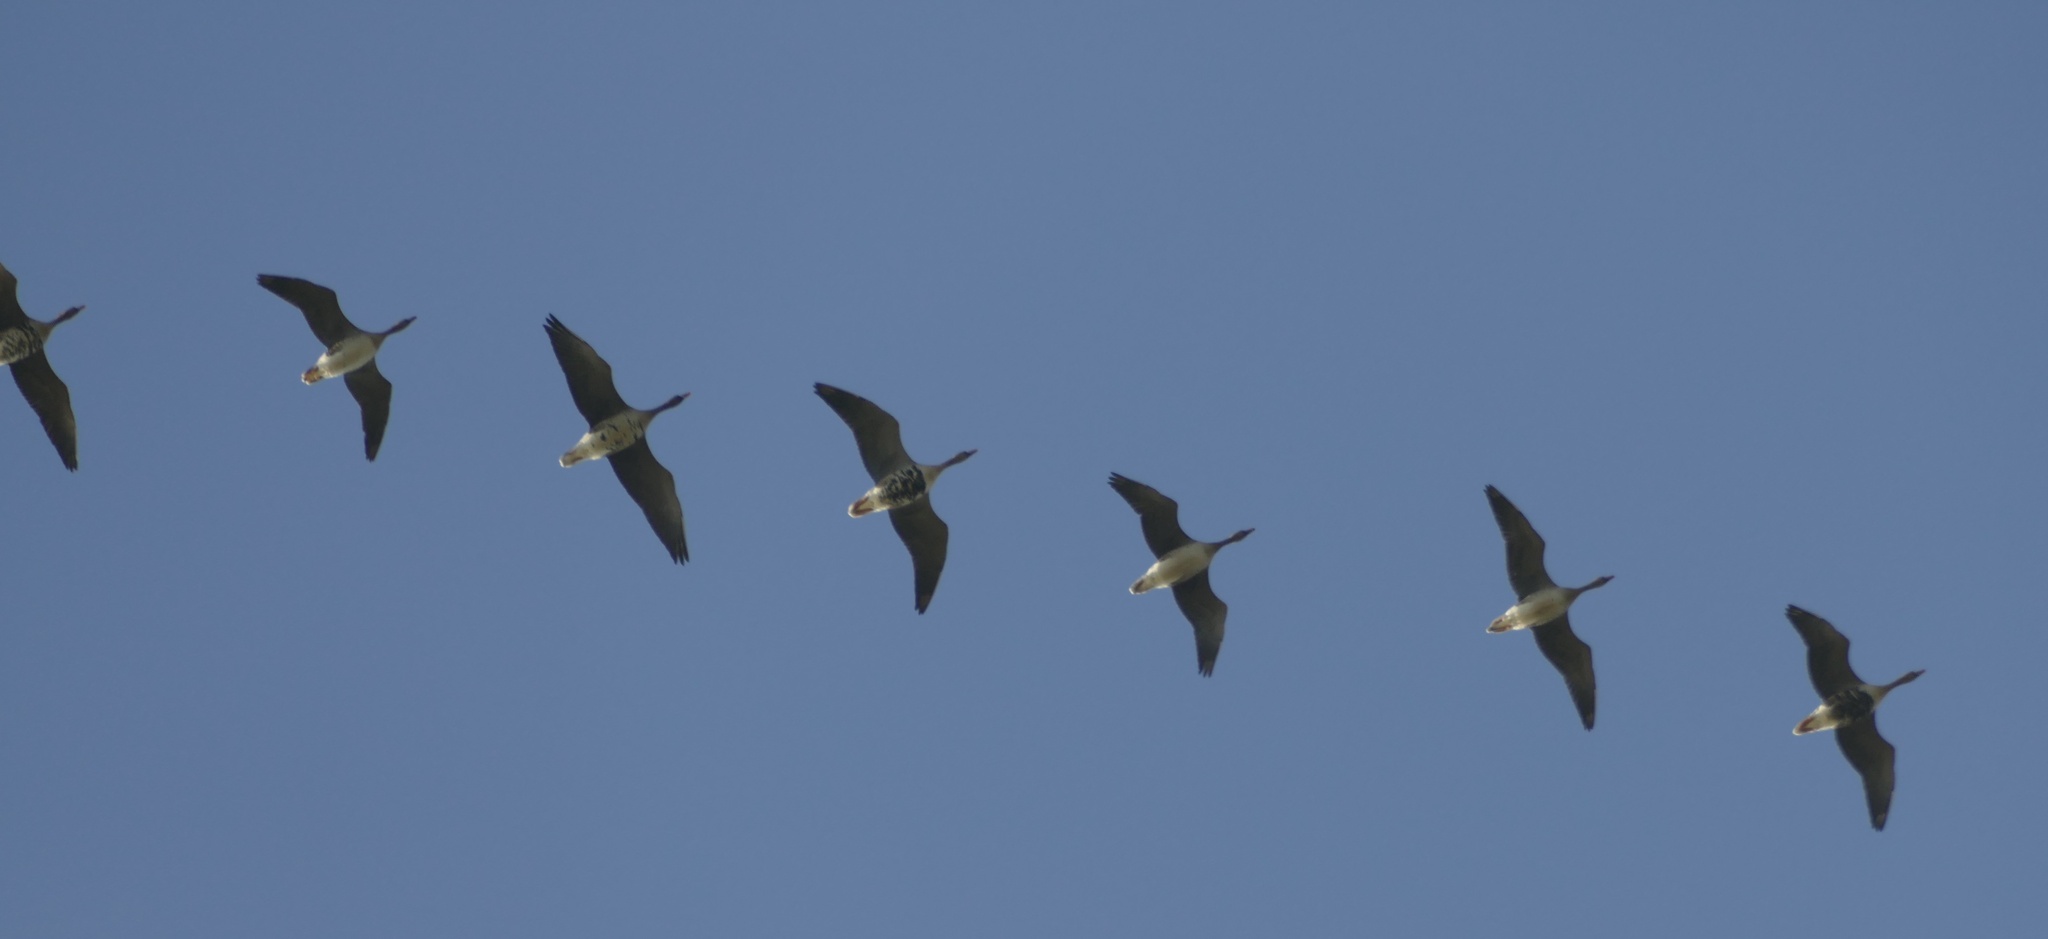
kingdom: Animalia
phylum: Chordata
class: Aves
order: Anseriformes
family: Anatidae
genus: Anser
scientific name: Anser albifrons
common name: Greater white-fronted goose
